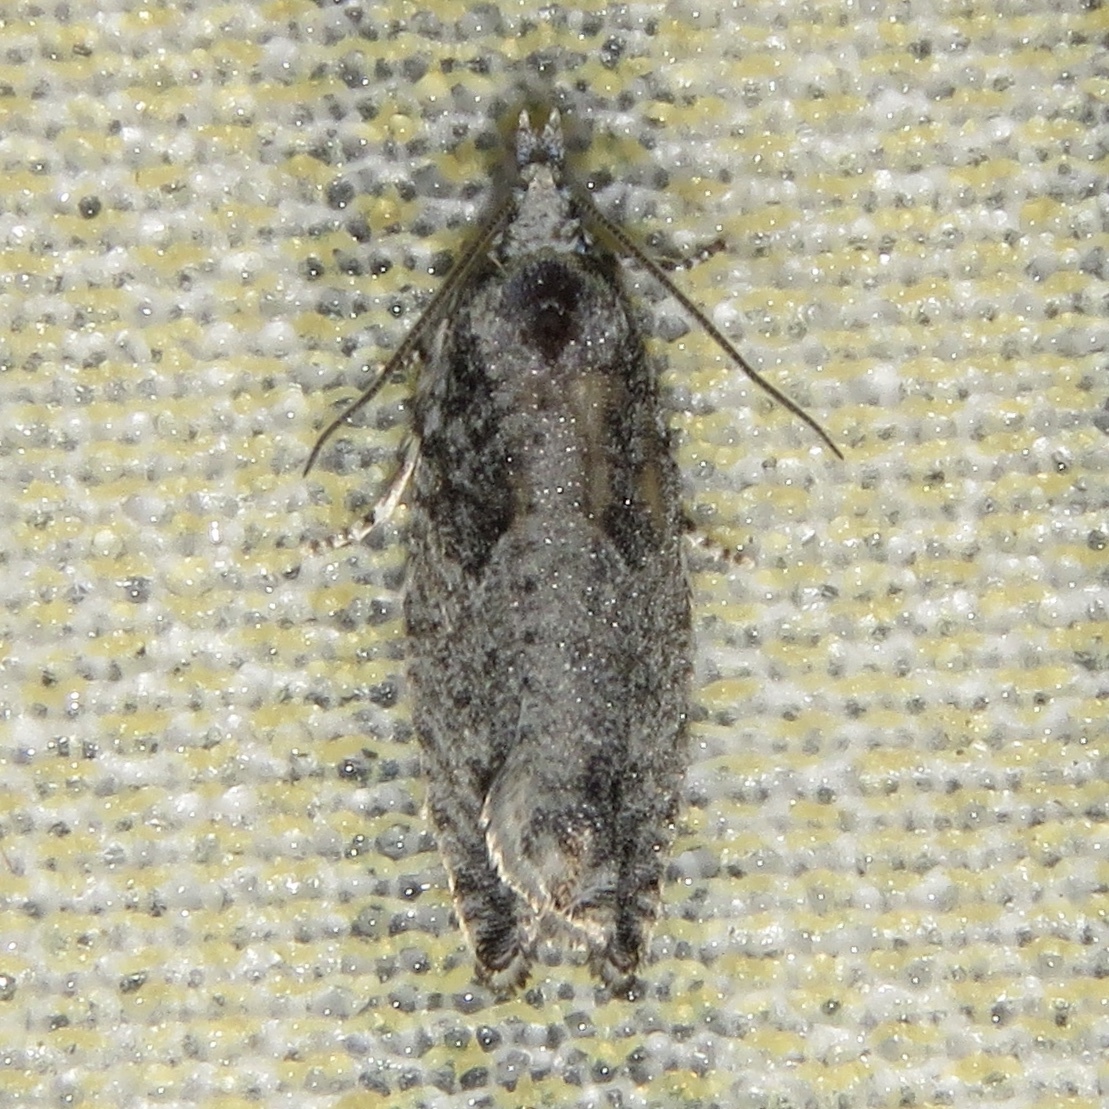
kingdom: Animalia
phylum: Arthropoda
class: Insecta
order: Lepidoptera
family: Tortricidae
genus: Epinotia
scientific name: Epinotia cinereana
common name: Grey aspen bell
